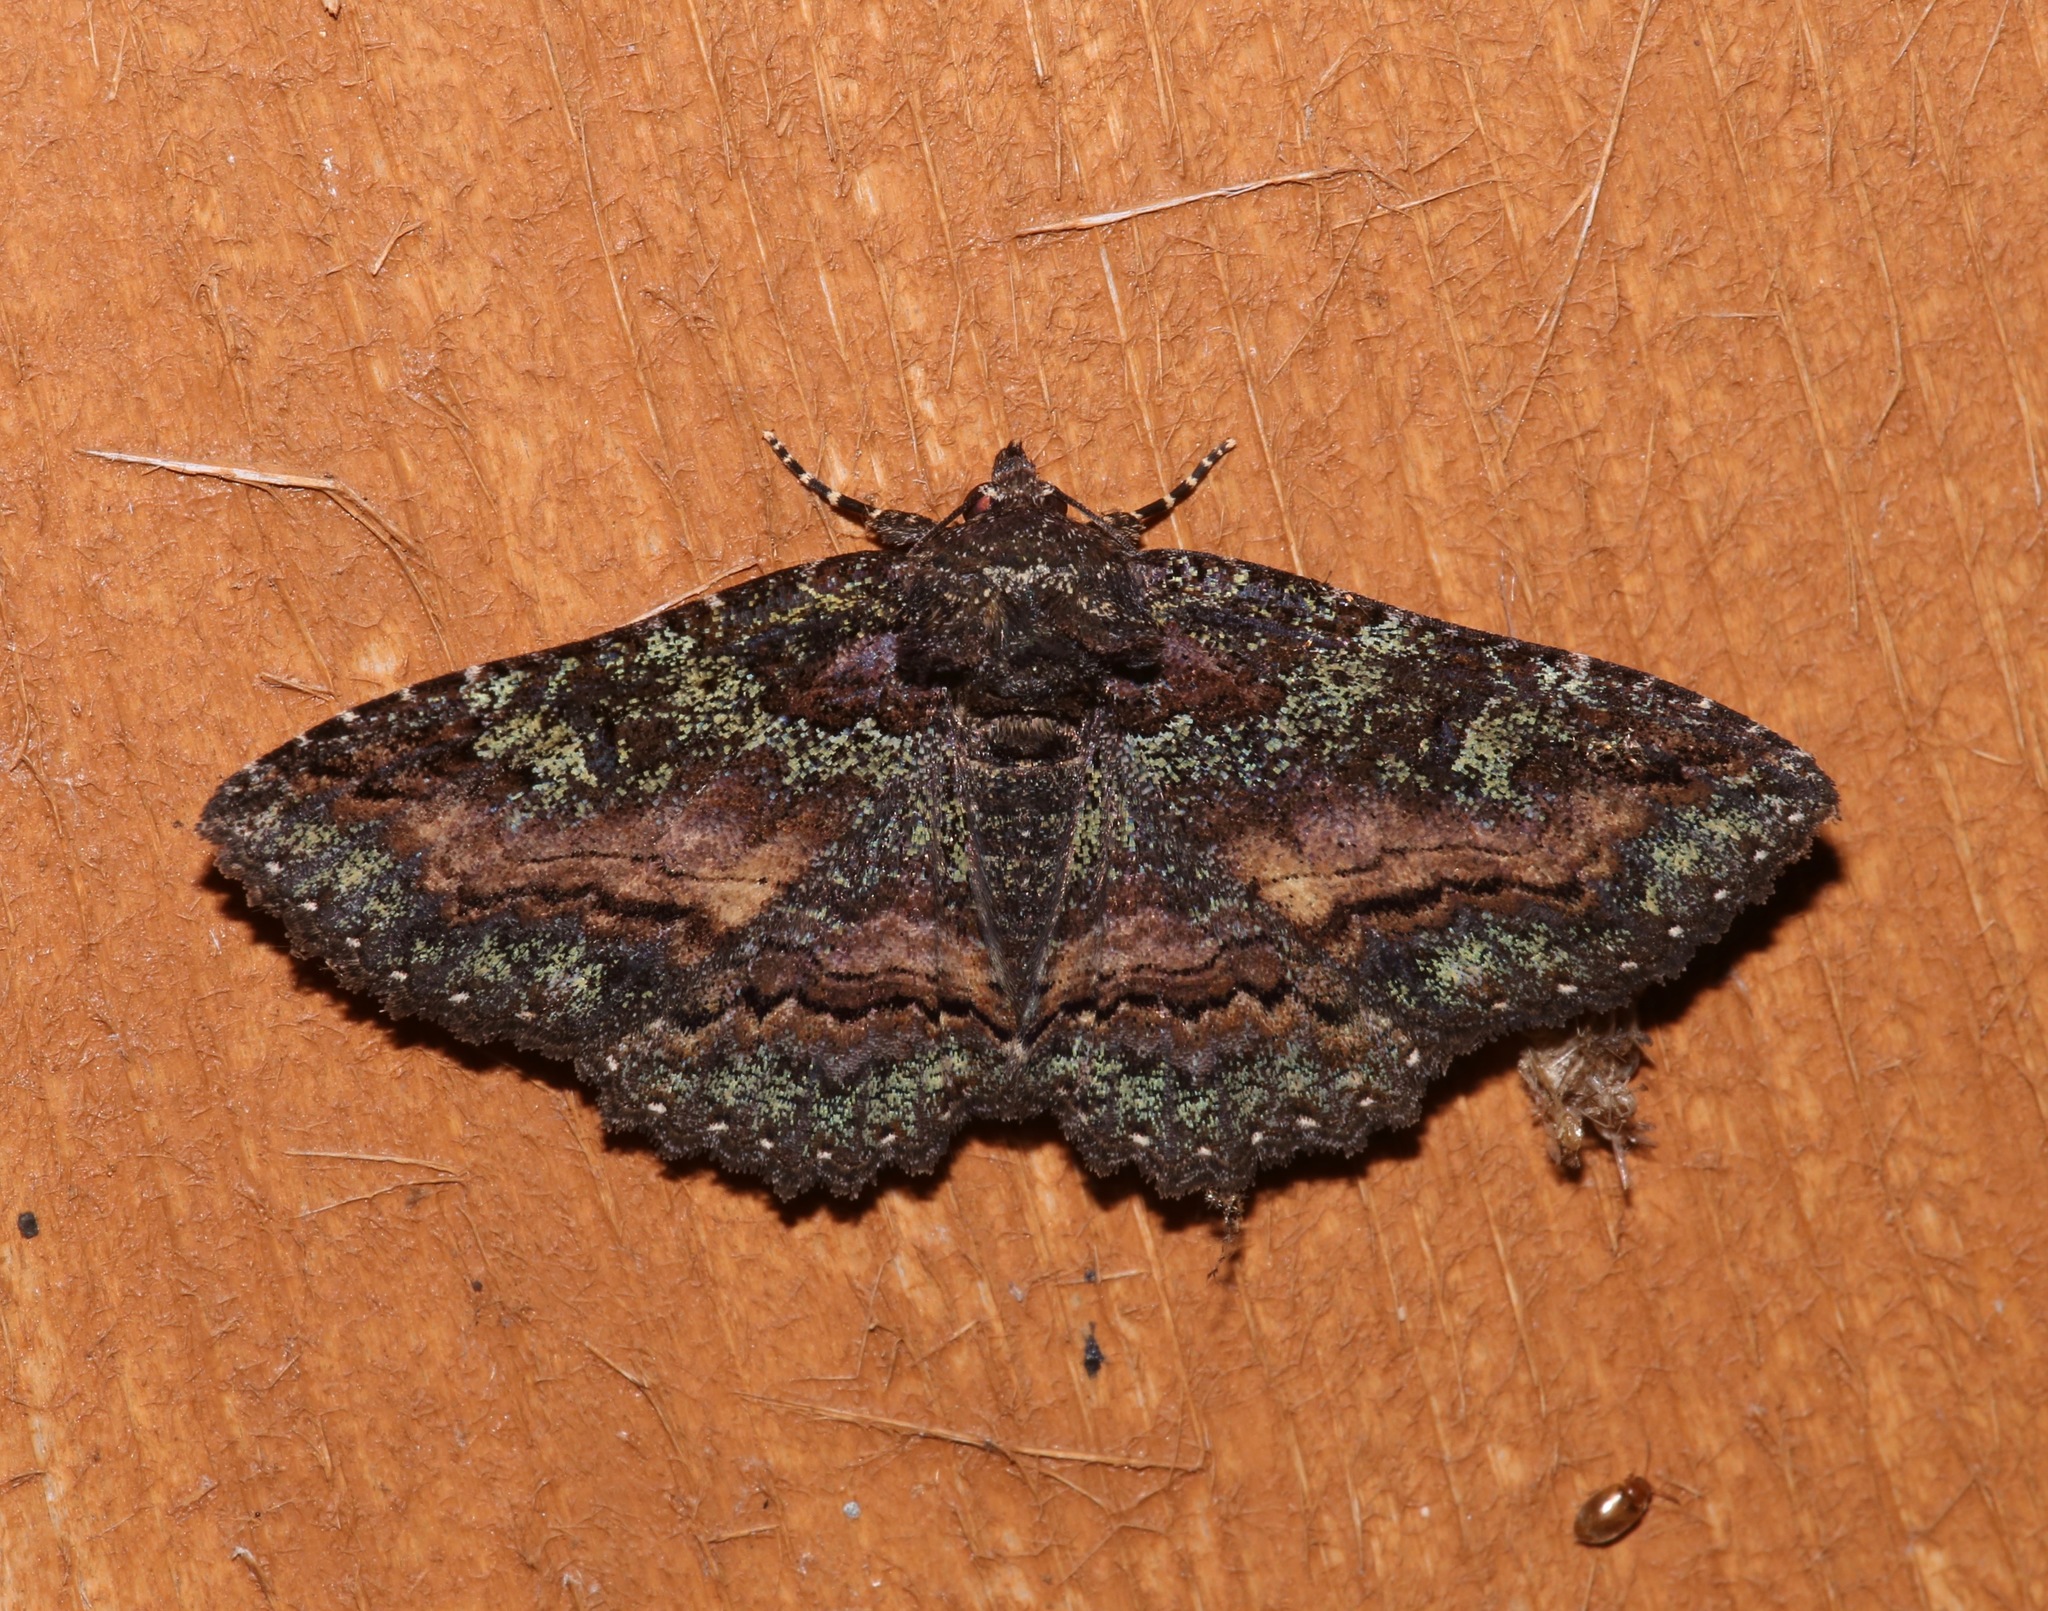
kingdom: Animalia
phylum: Arthropoda
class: Insecta
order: Lepidoptera
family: Erebidae
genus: Zale
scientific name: Zale aeruginosa
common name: Green-dusted zale moth
